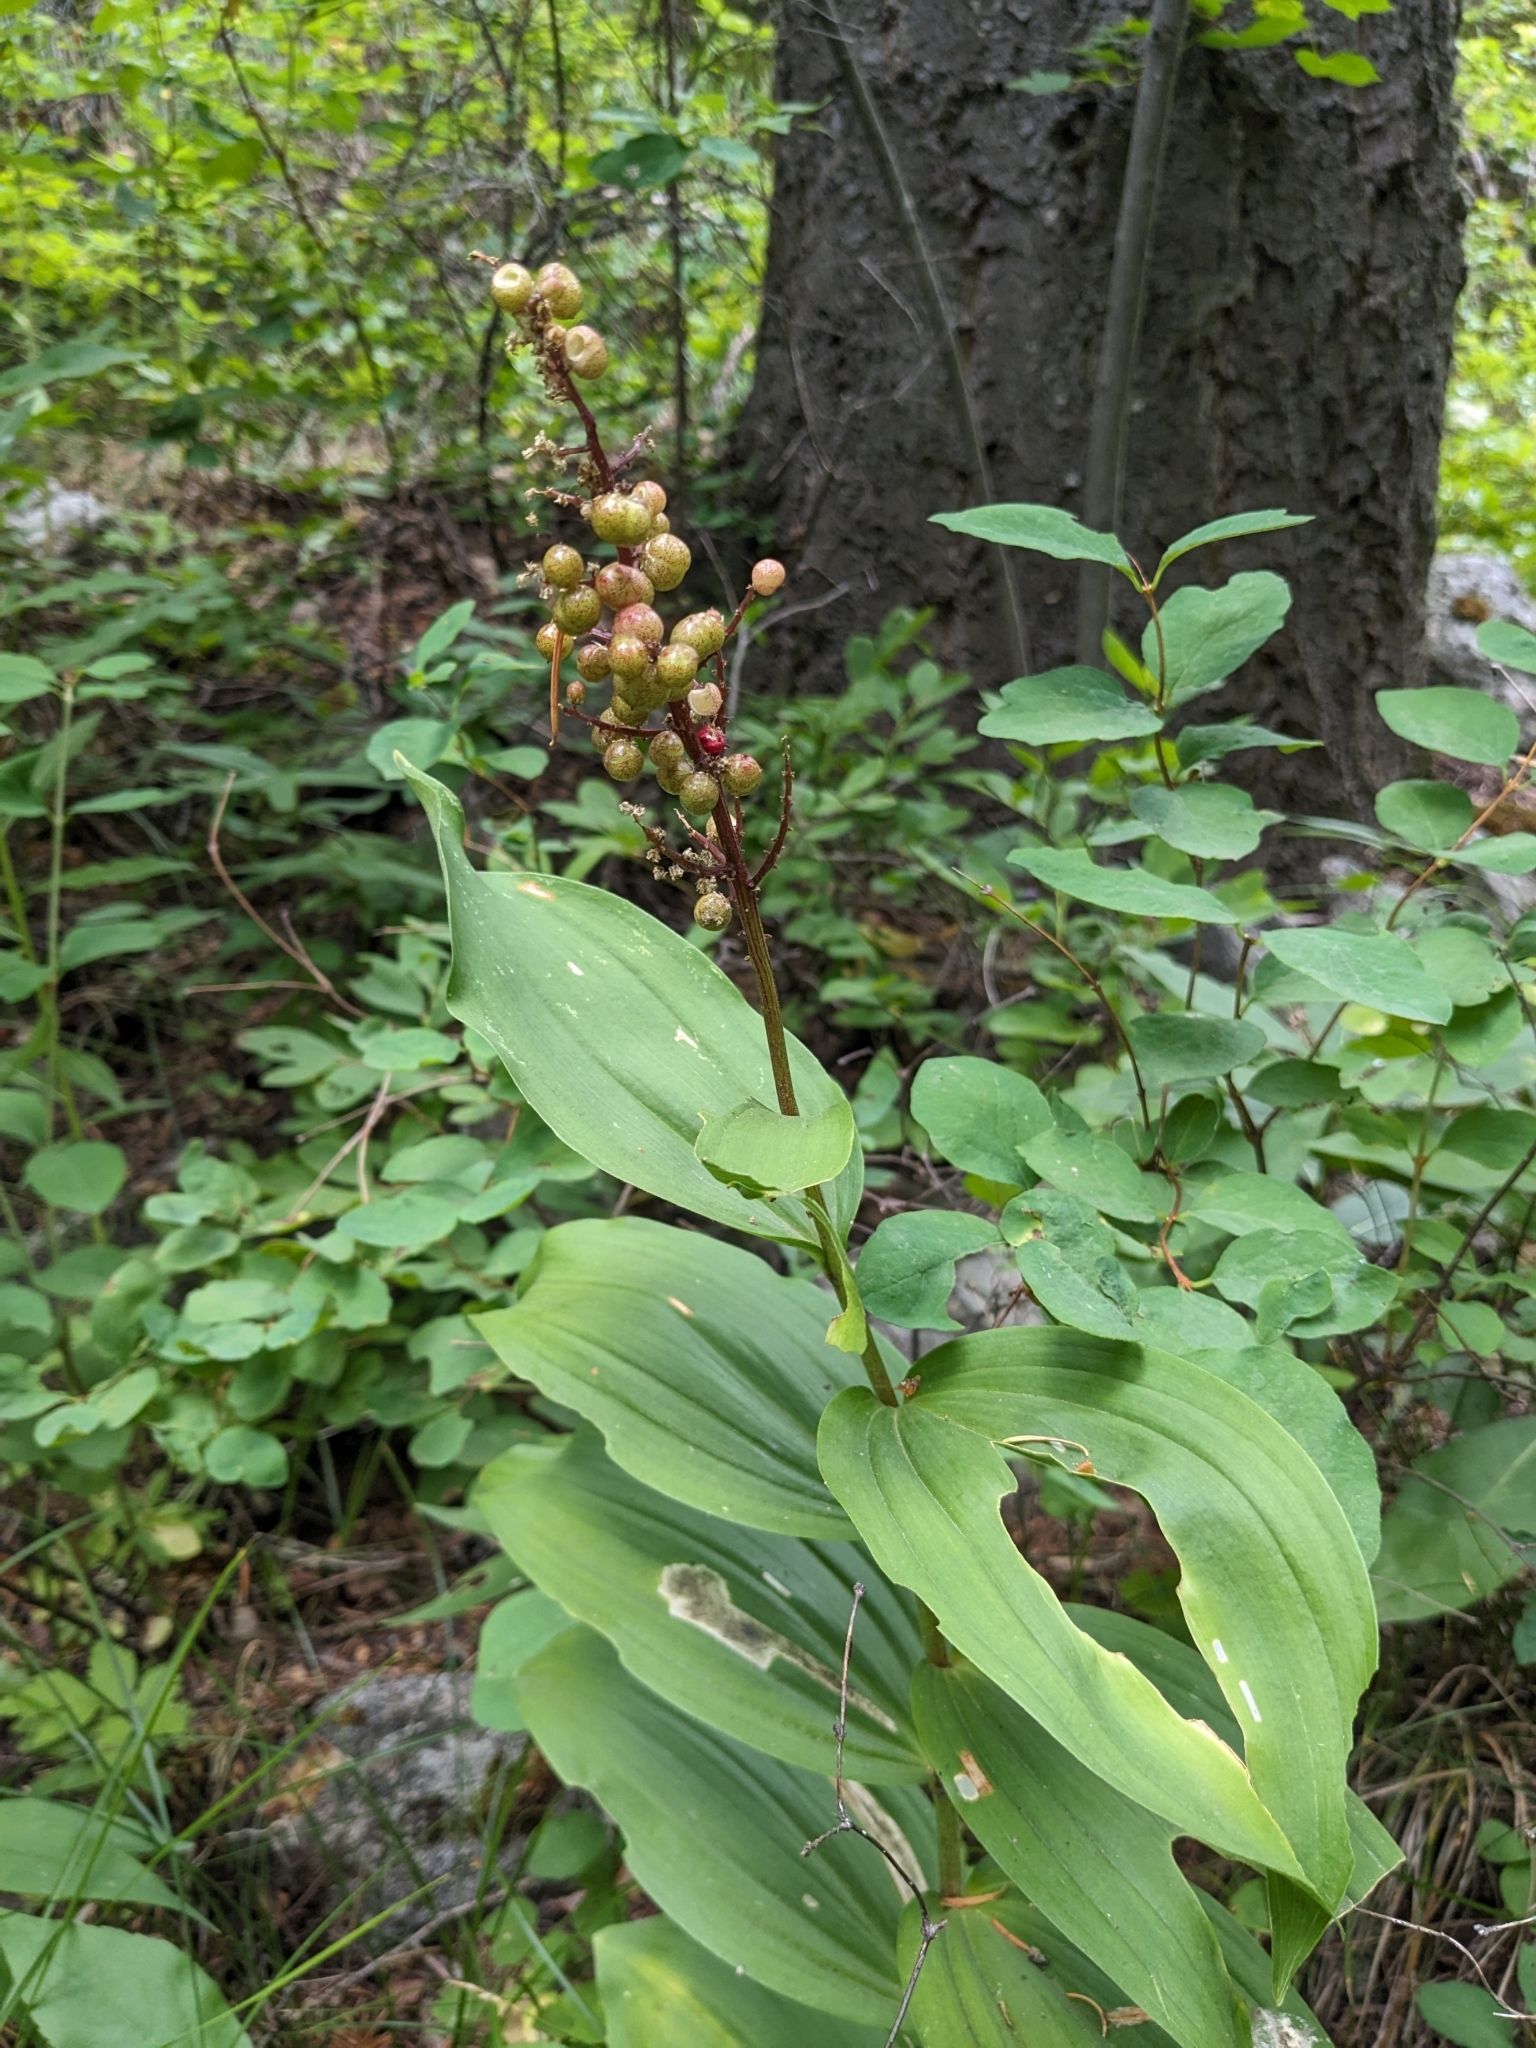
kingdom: Plantae
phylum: Tracheophyta
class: Liliopsida
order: Asparagales
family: Asparagaceae
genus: Maianthemum
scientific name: Maianthemum racemosum
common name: False spikenard
